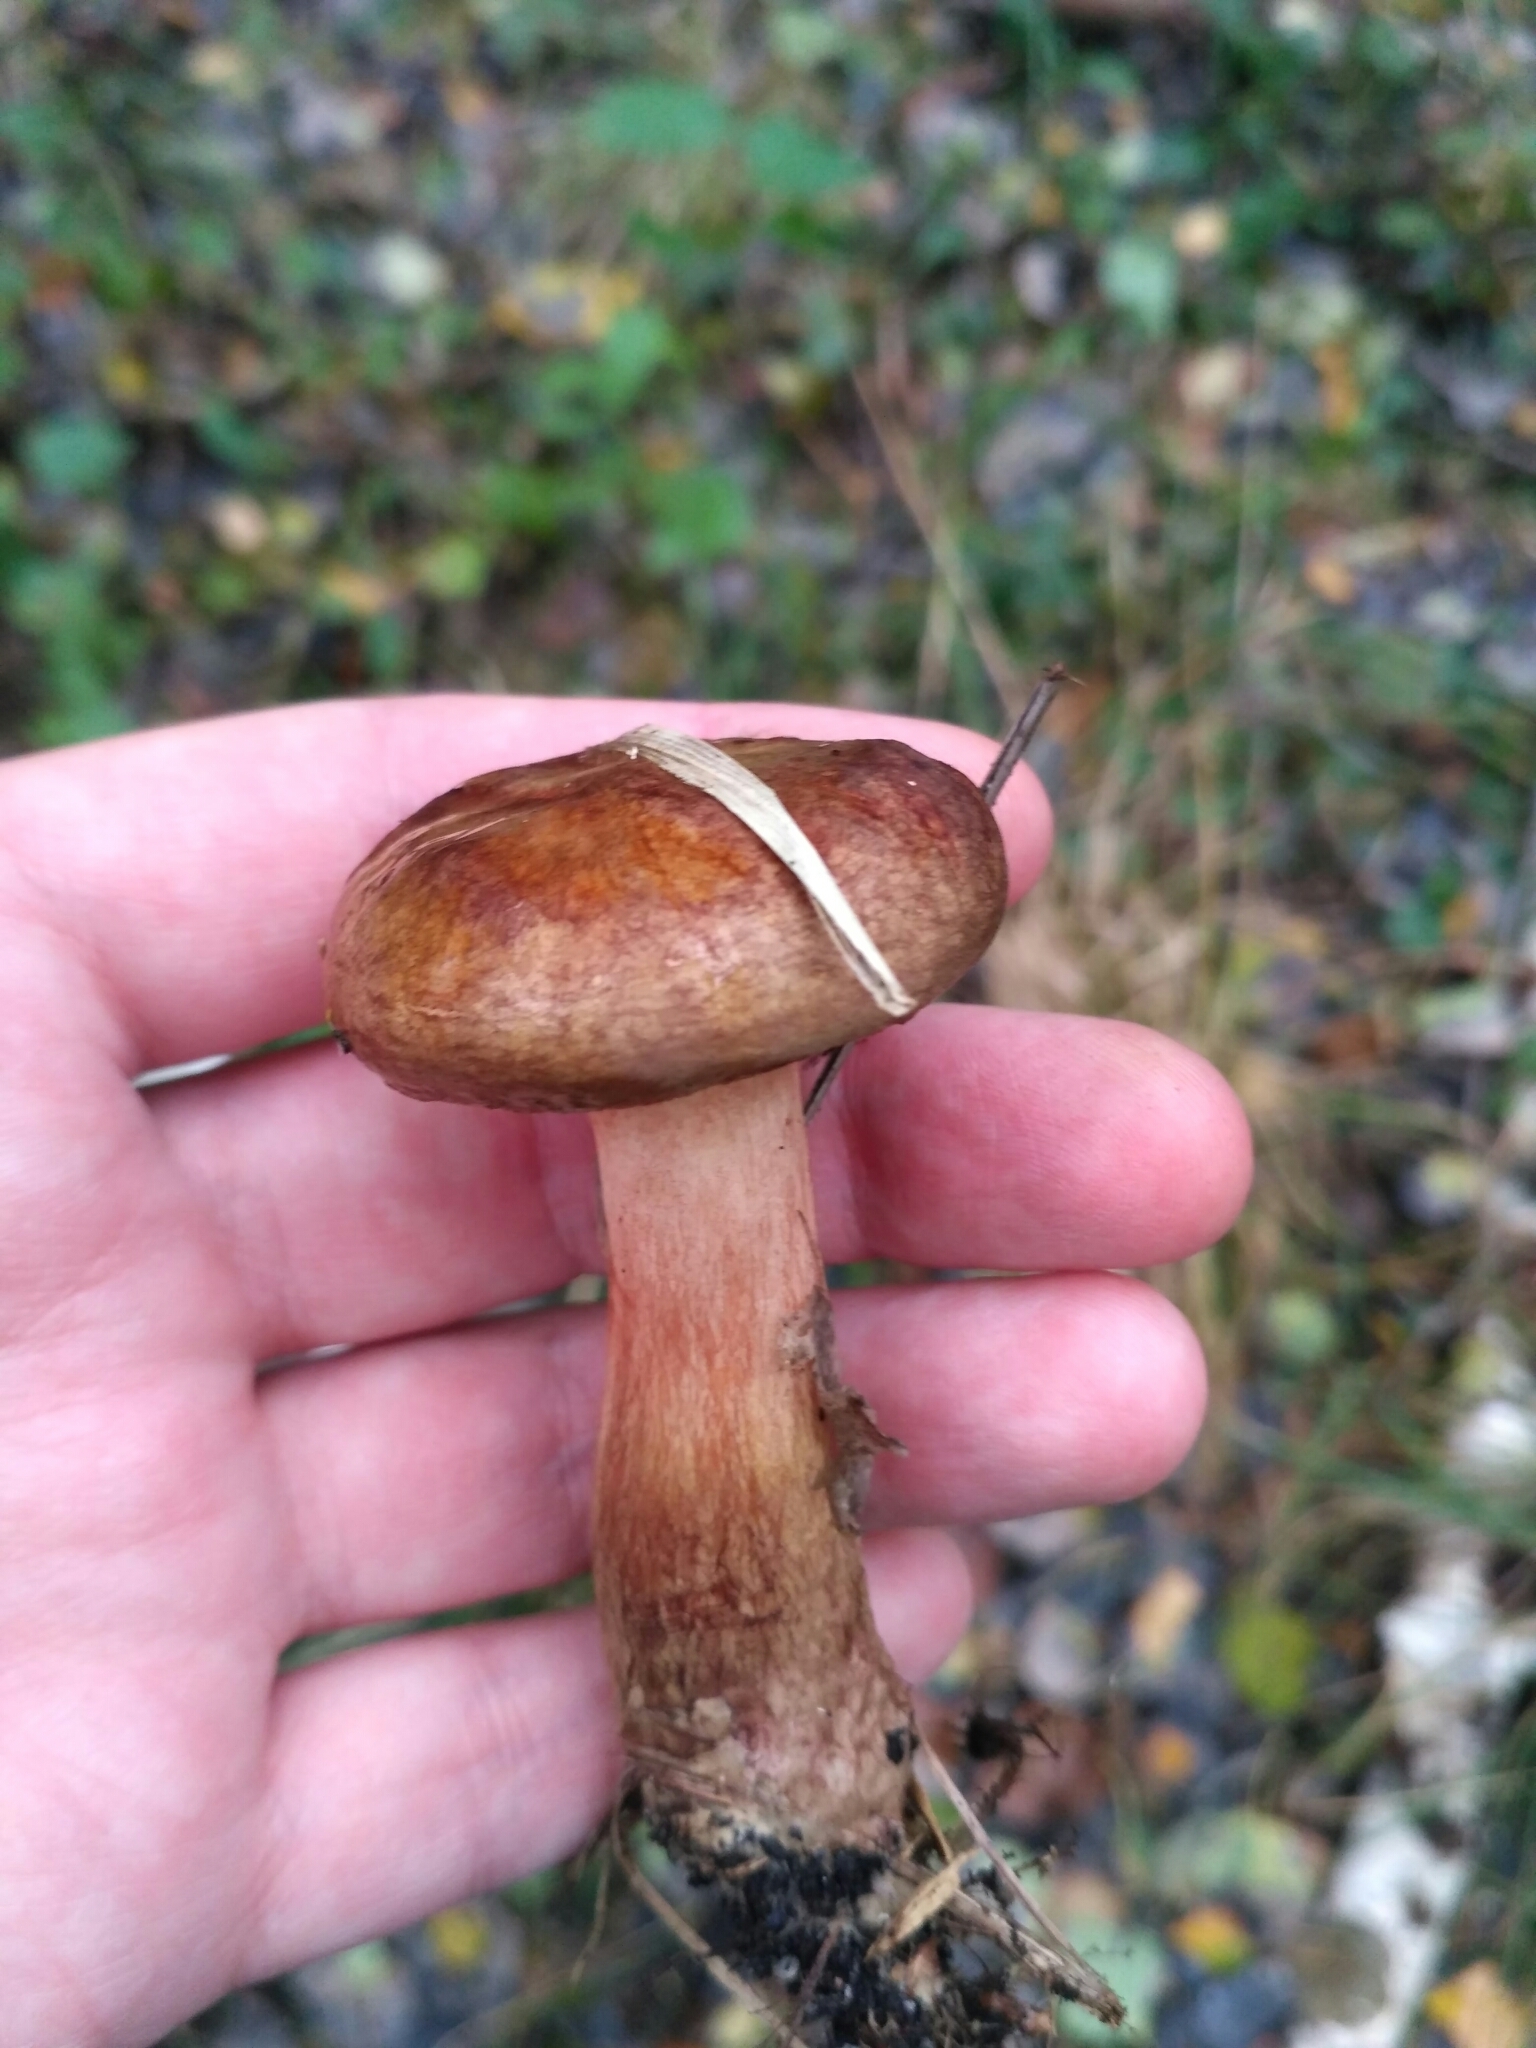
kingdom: Fungi
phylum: Basidiomycota
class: Agaricomycetes
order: Boletales
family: Paxillaceae
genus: Paxillus
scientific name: Paxillus involutus
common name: Brown roll rim
